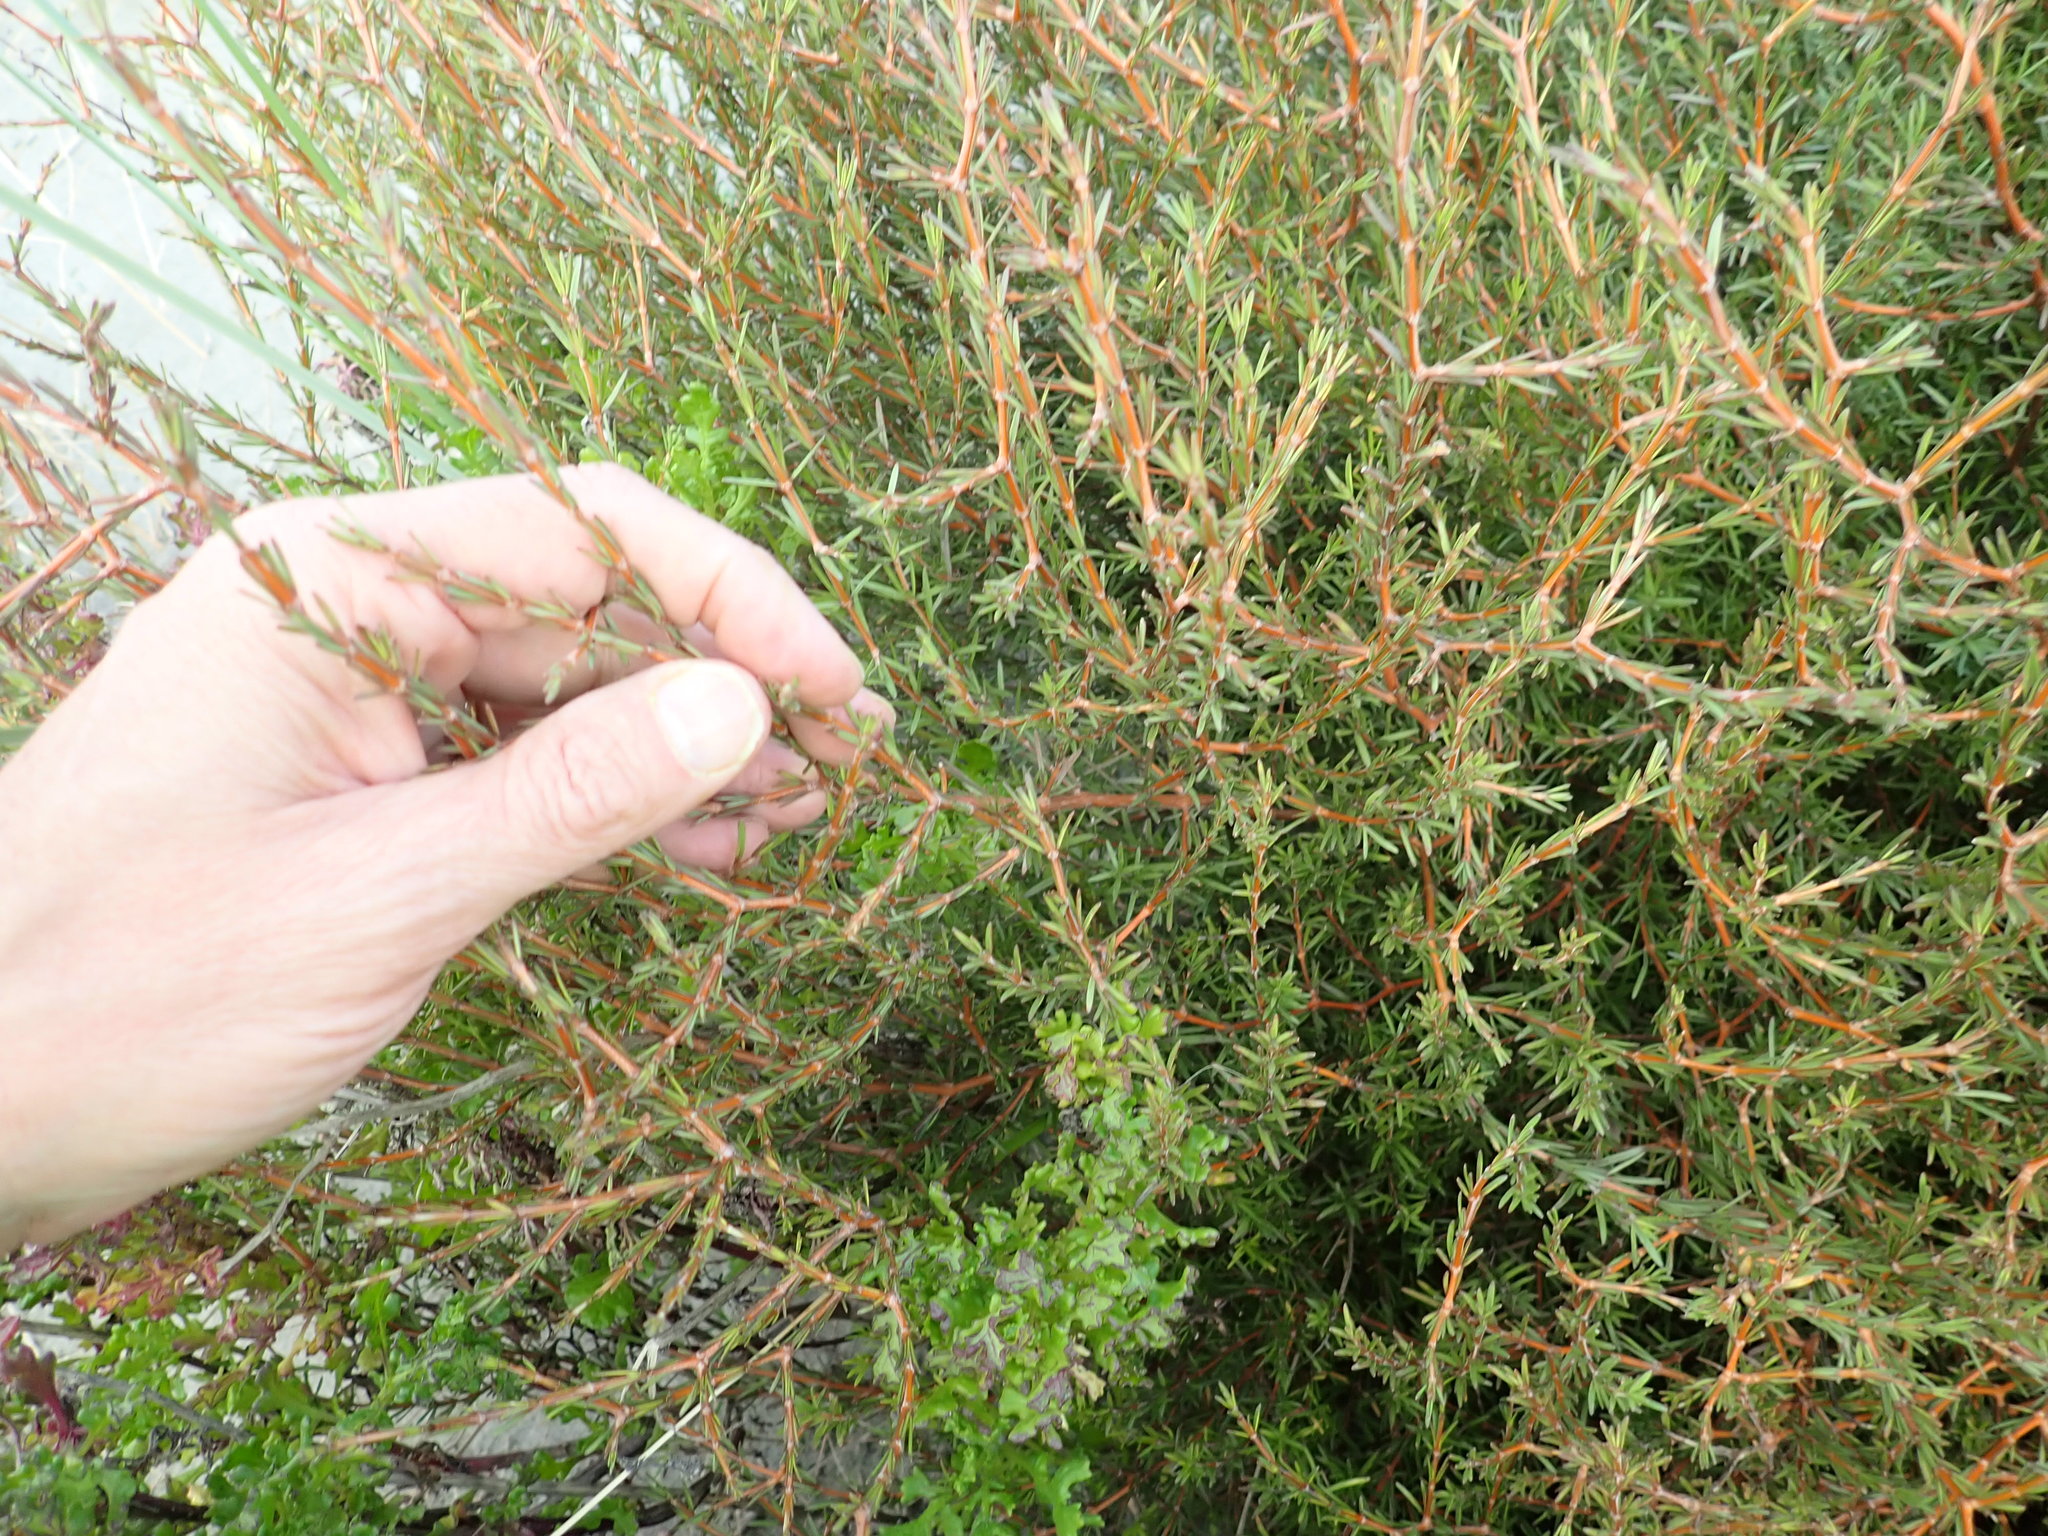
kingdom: Plantae
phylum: Tracheophyta
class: Magnoliopsida
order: Gentianales
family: Rubiaceae
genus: Coprosma
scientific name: Coprosma acerosa
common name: Sand coprosma
